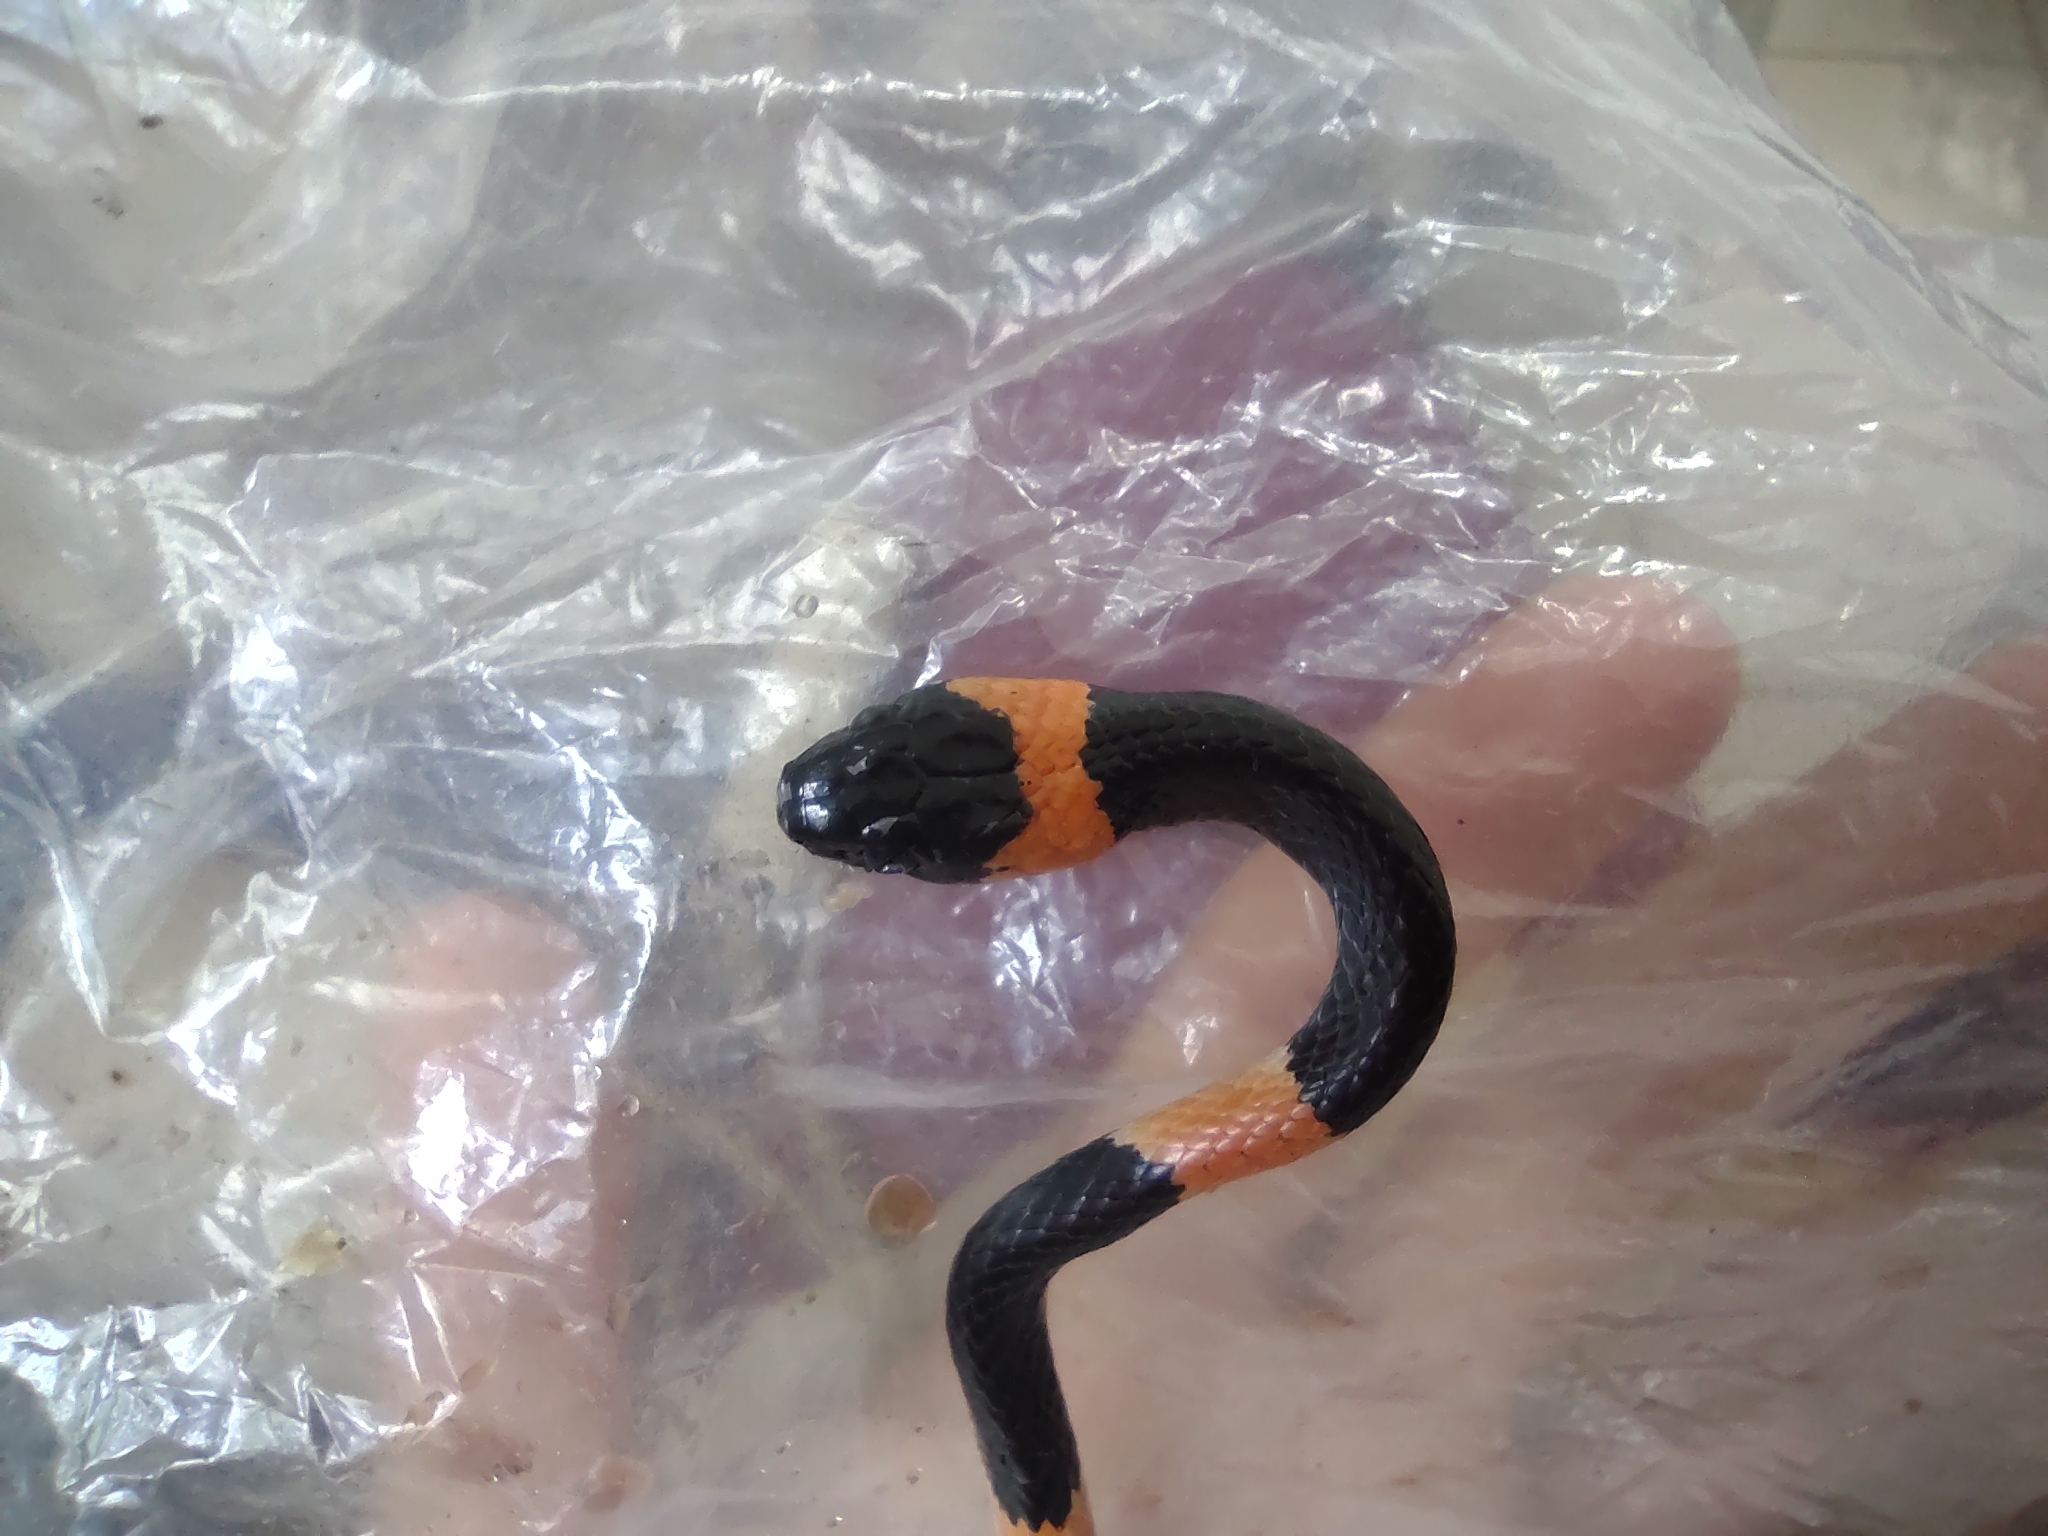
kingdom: Animalia
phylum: Chordata
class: Squamata
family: Colubridae
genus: Dipsas
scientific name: Dipsas brevifacies
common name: Snail-eating thirst snake
